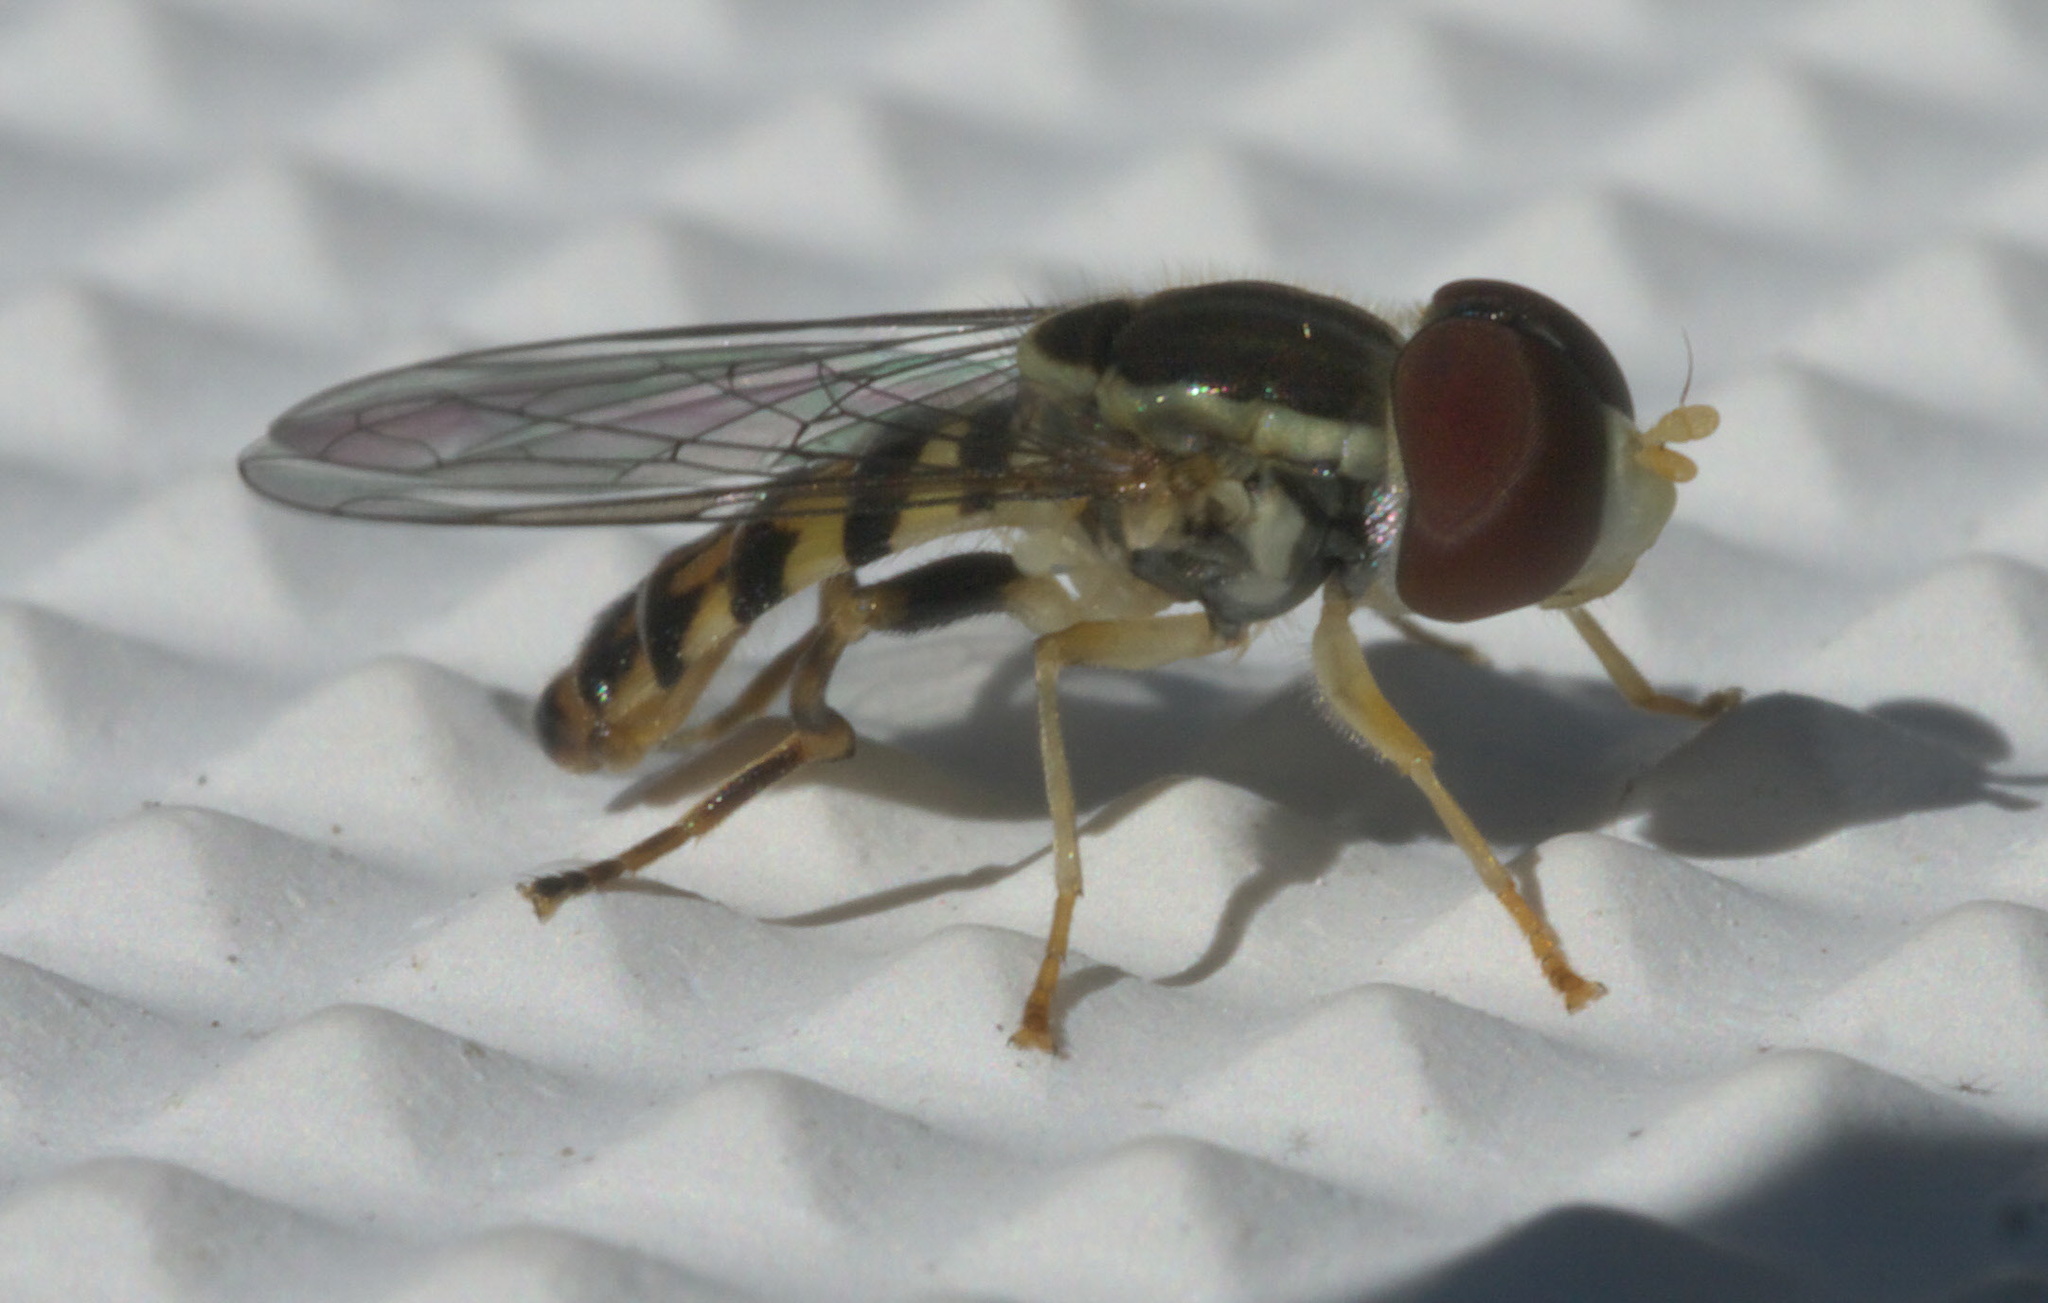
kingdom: Animalia
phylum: Arthropoda
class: Insecta
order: Diptera
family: Syrphidae
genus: Toxomerus
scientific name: Toxomerus geminatus
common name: Eastern calligrapher
